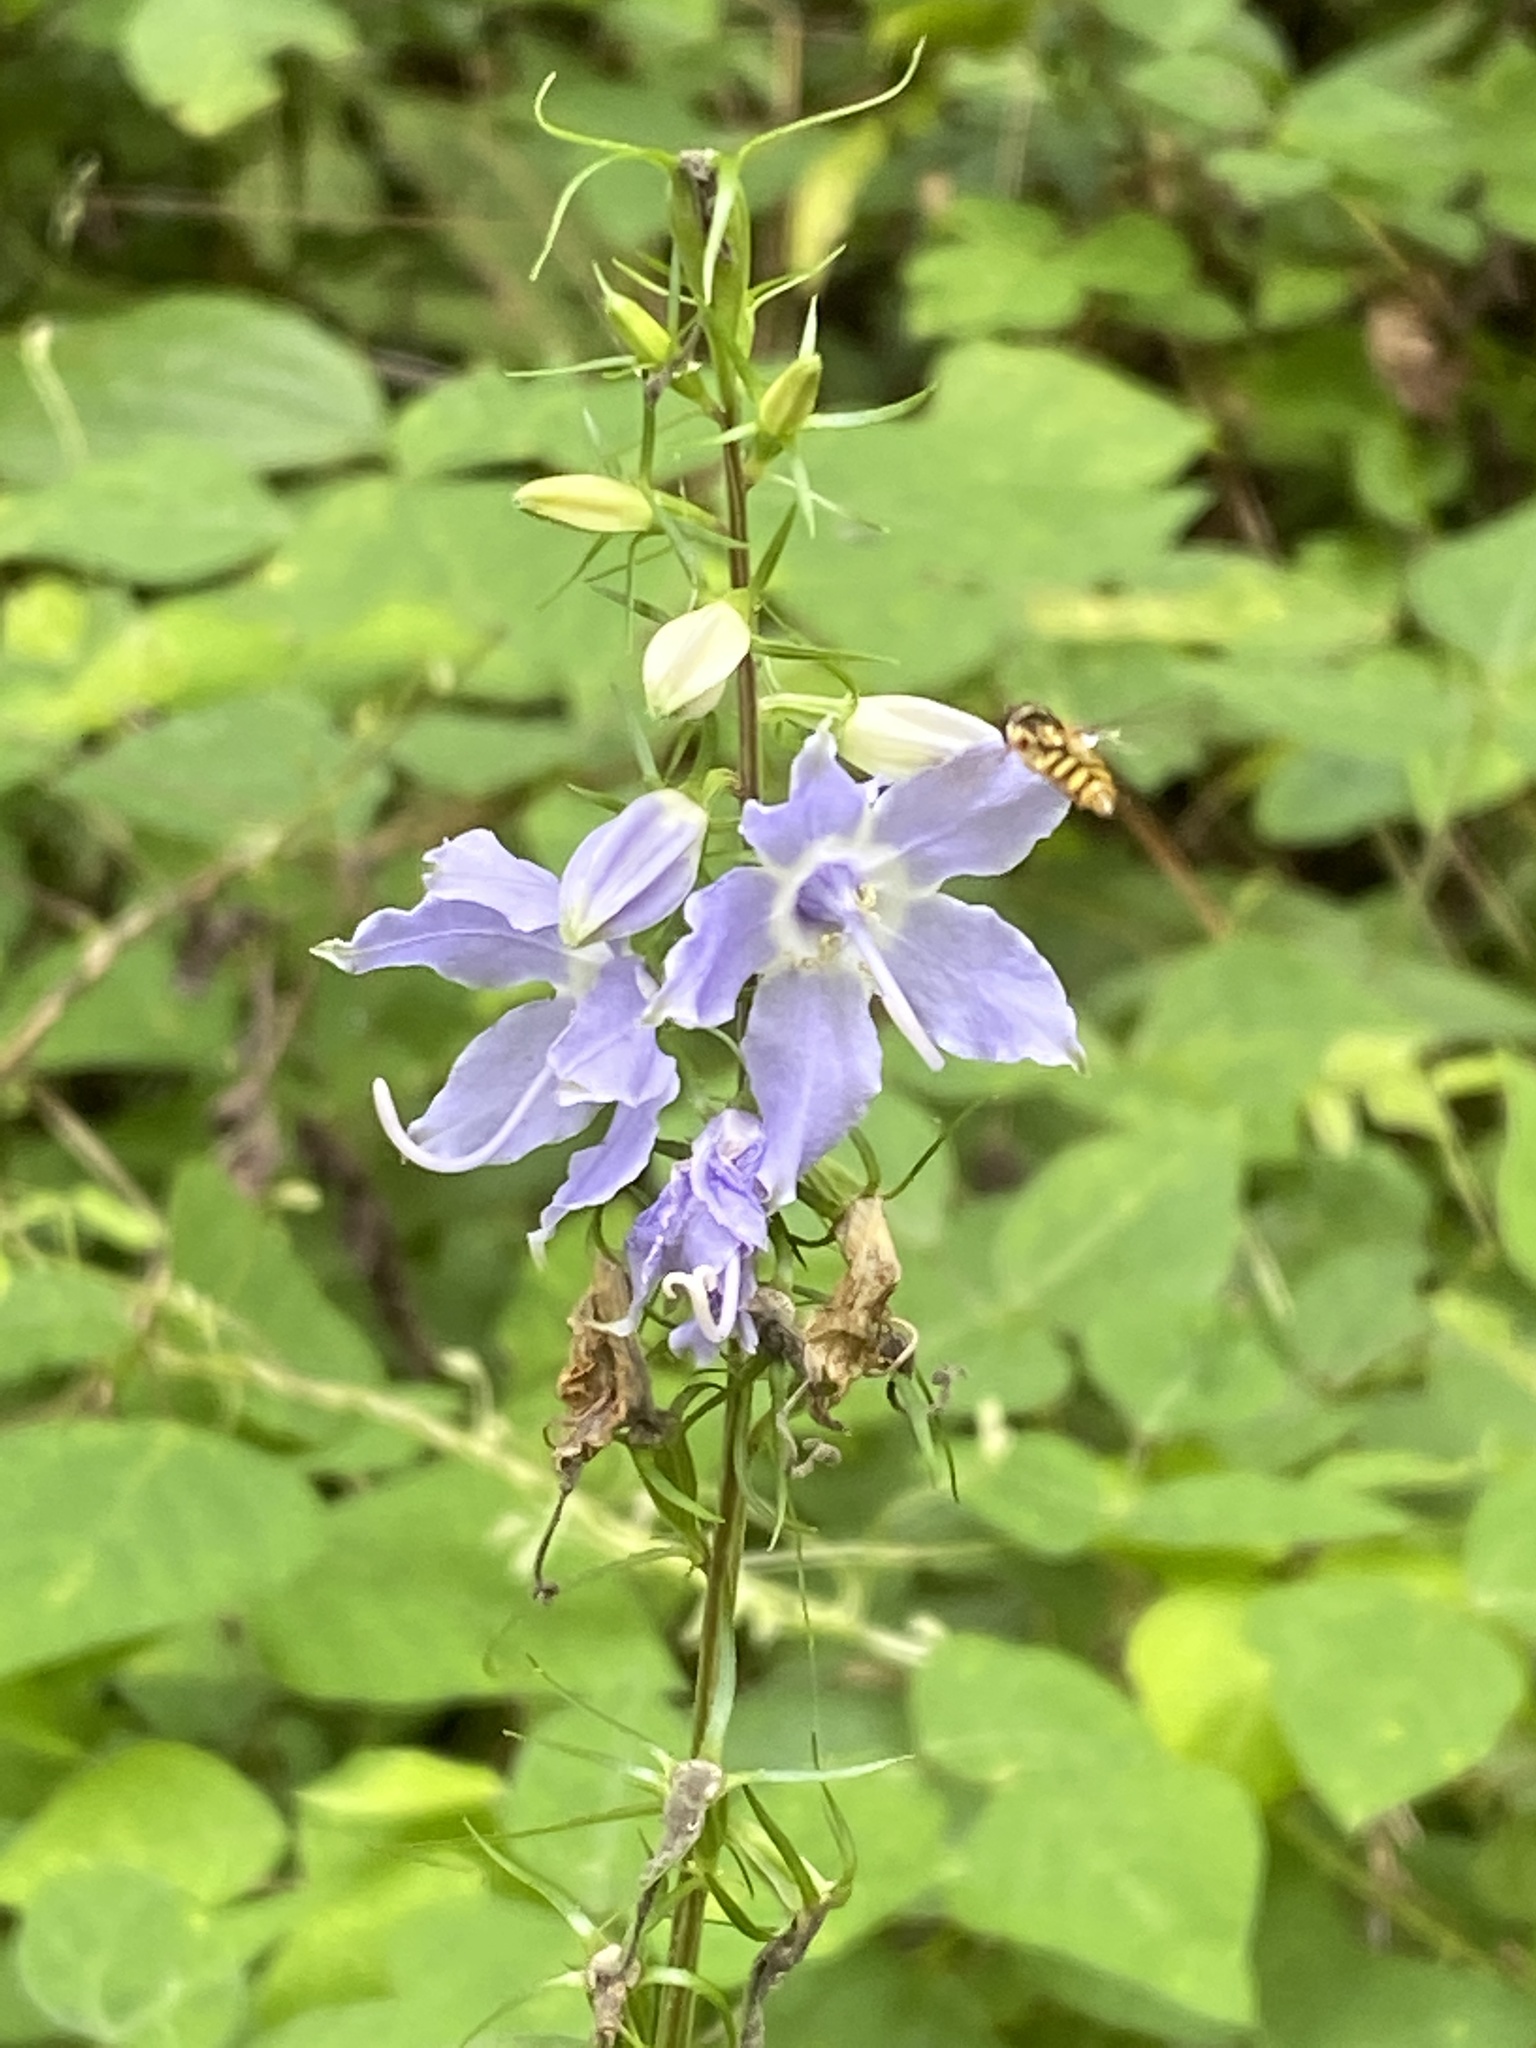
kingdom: Plantae
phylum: Tracheophyta
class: Magnoliopsida
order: Asterales
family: Campanulaceae
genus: Campanulastrum
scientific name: Campanulastrum americanum
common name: American bellflower
